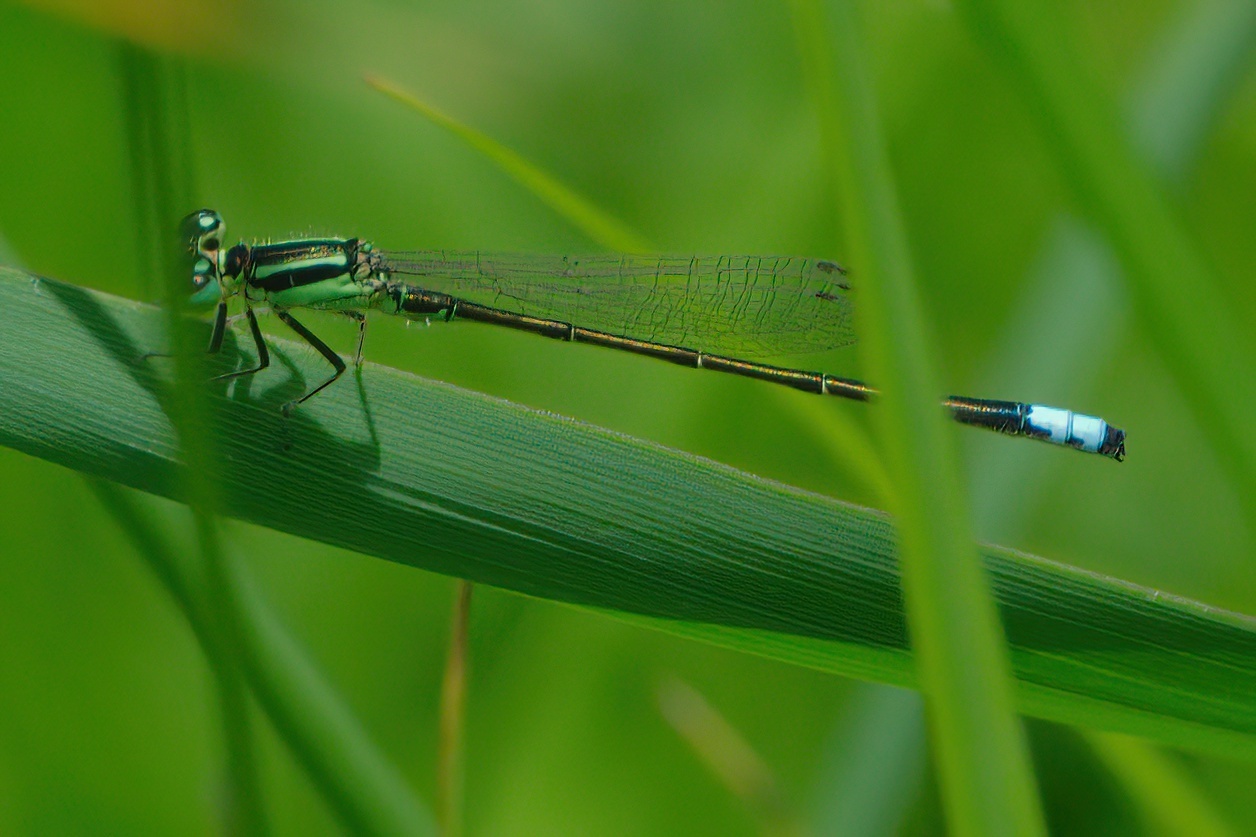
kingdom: Animalia
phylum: Arthropoda
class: Insecta
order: Odonata
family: Coenagrionidae
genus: Ischnura
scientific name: Ischnura verticalis
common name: Eastern forktail
